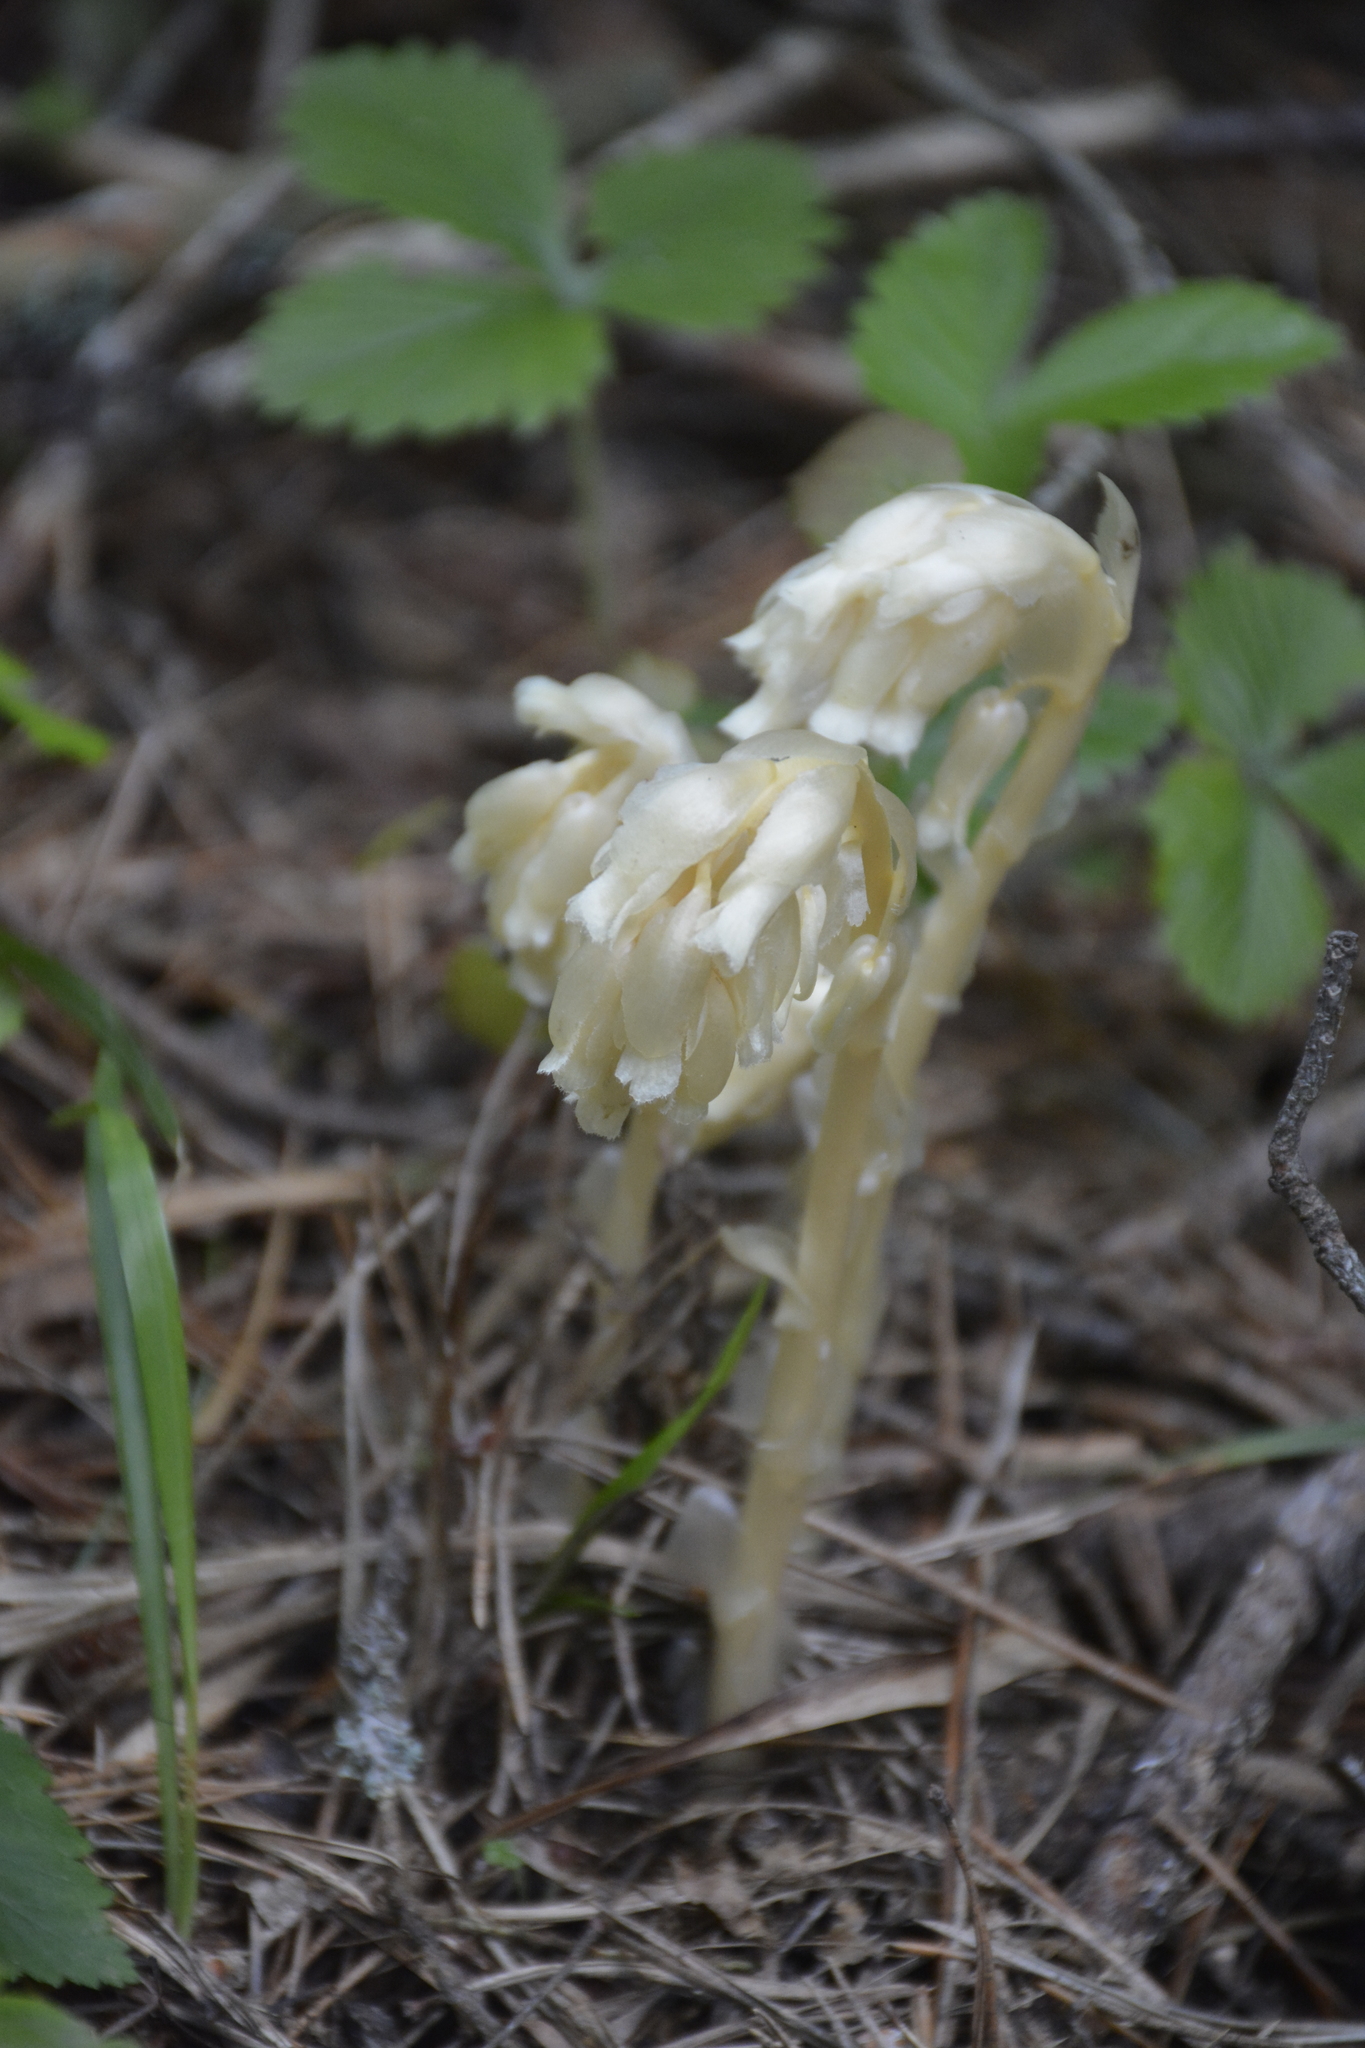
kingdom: Plantae
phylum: Tracheophyta
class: Magnoliopsida
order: Ericales
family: Ericaceae
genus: Hypopitys
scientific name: Hypopitys monotropa
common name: Yellow bird's-nest
